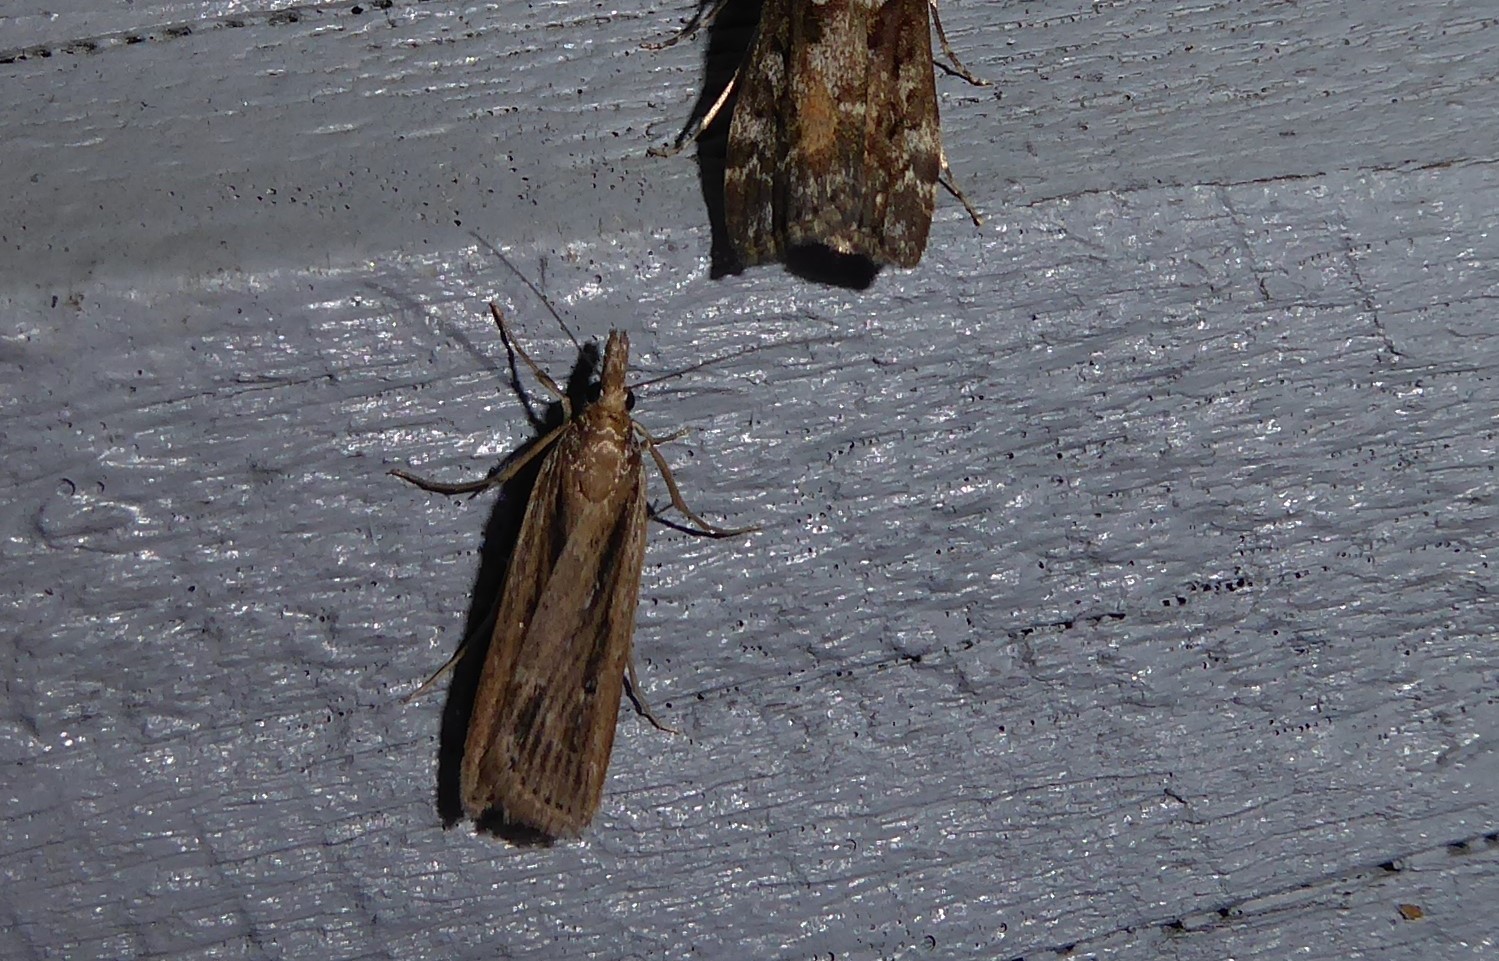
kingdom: Animalia
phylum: Arthropoda
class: Insecta
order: Lepidoptera
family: Crambidae
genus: Eudonia
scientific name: Eudonia sabulosella
